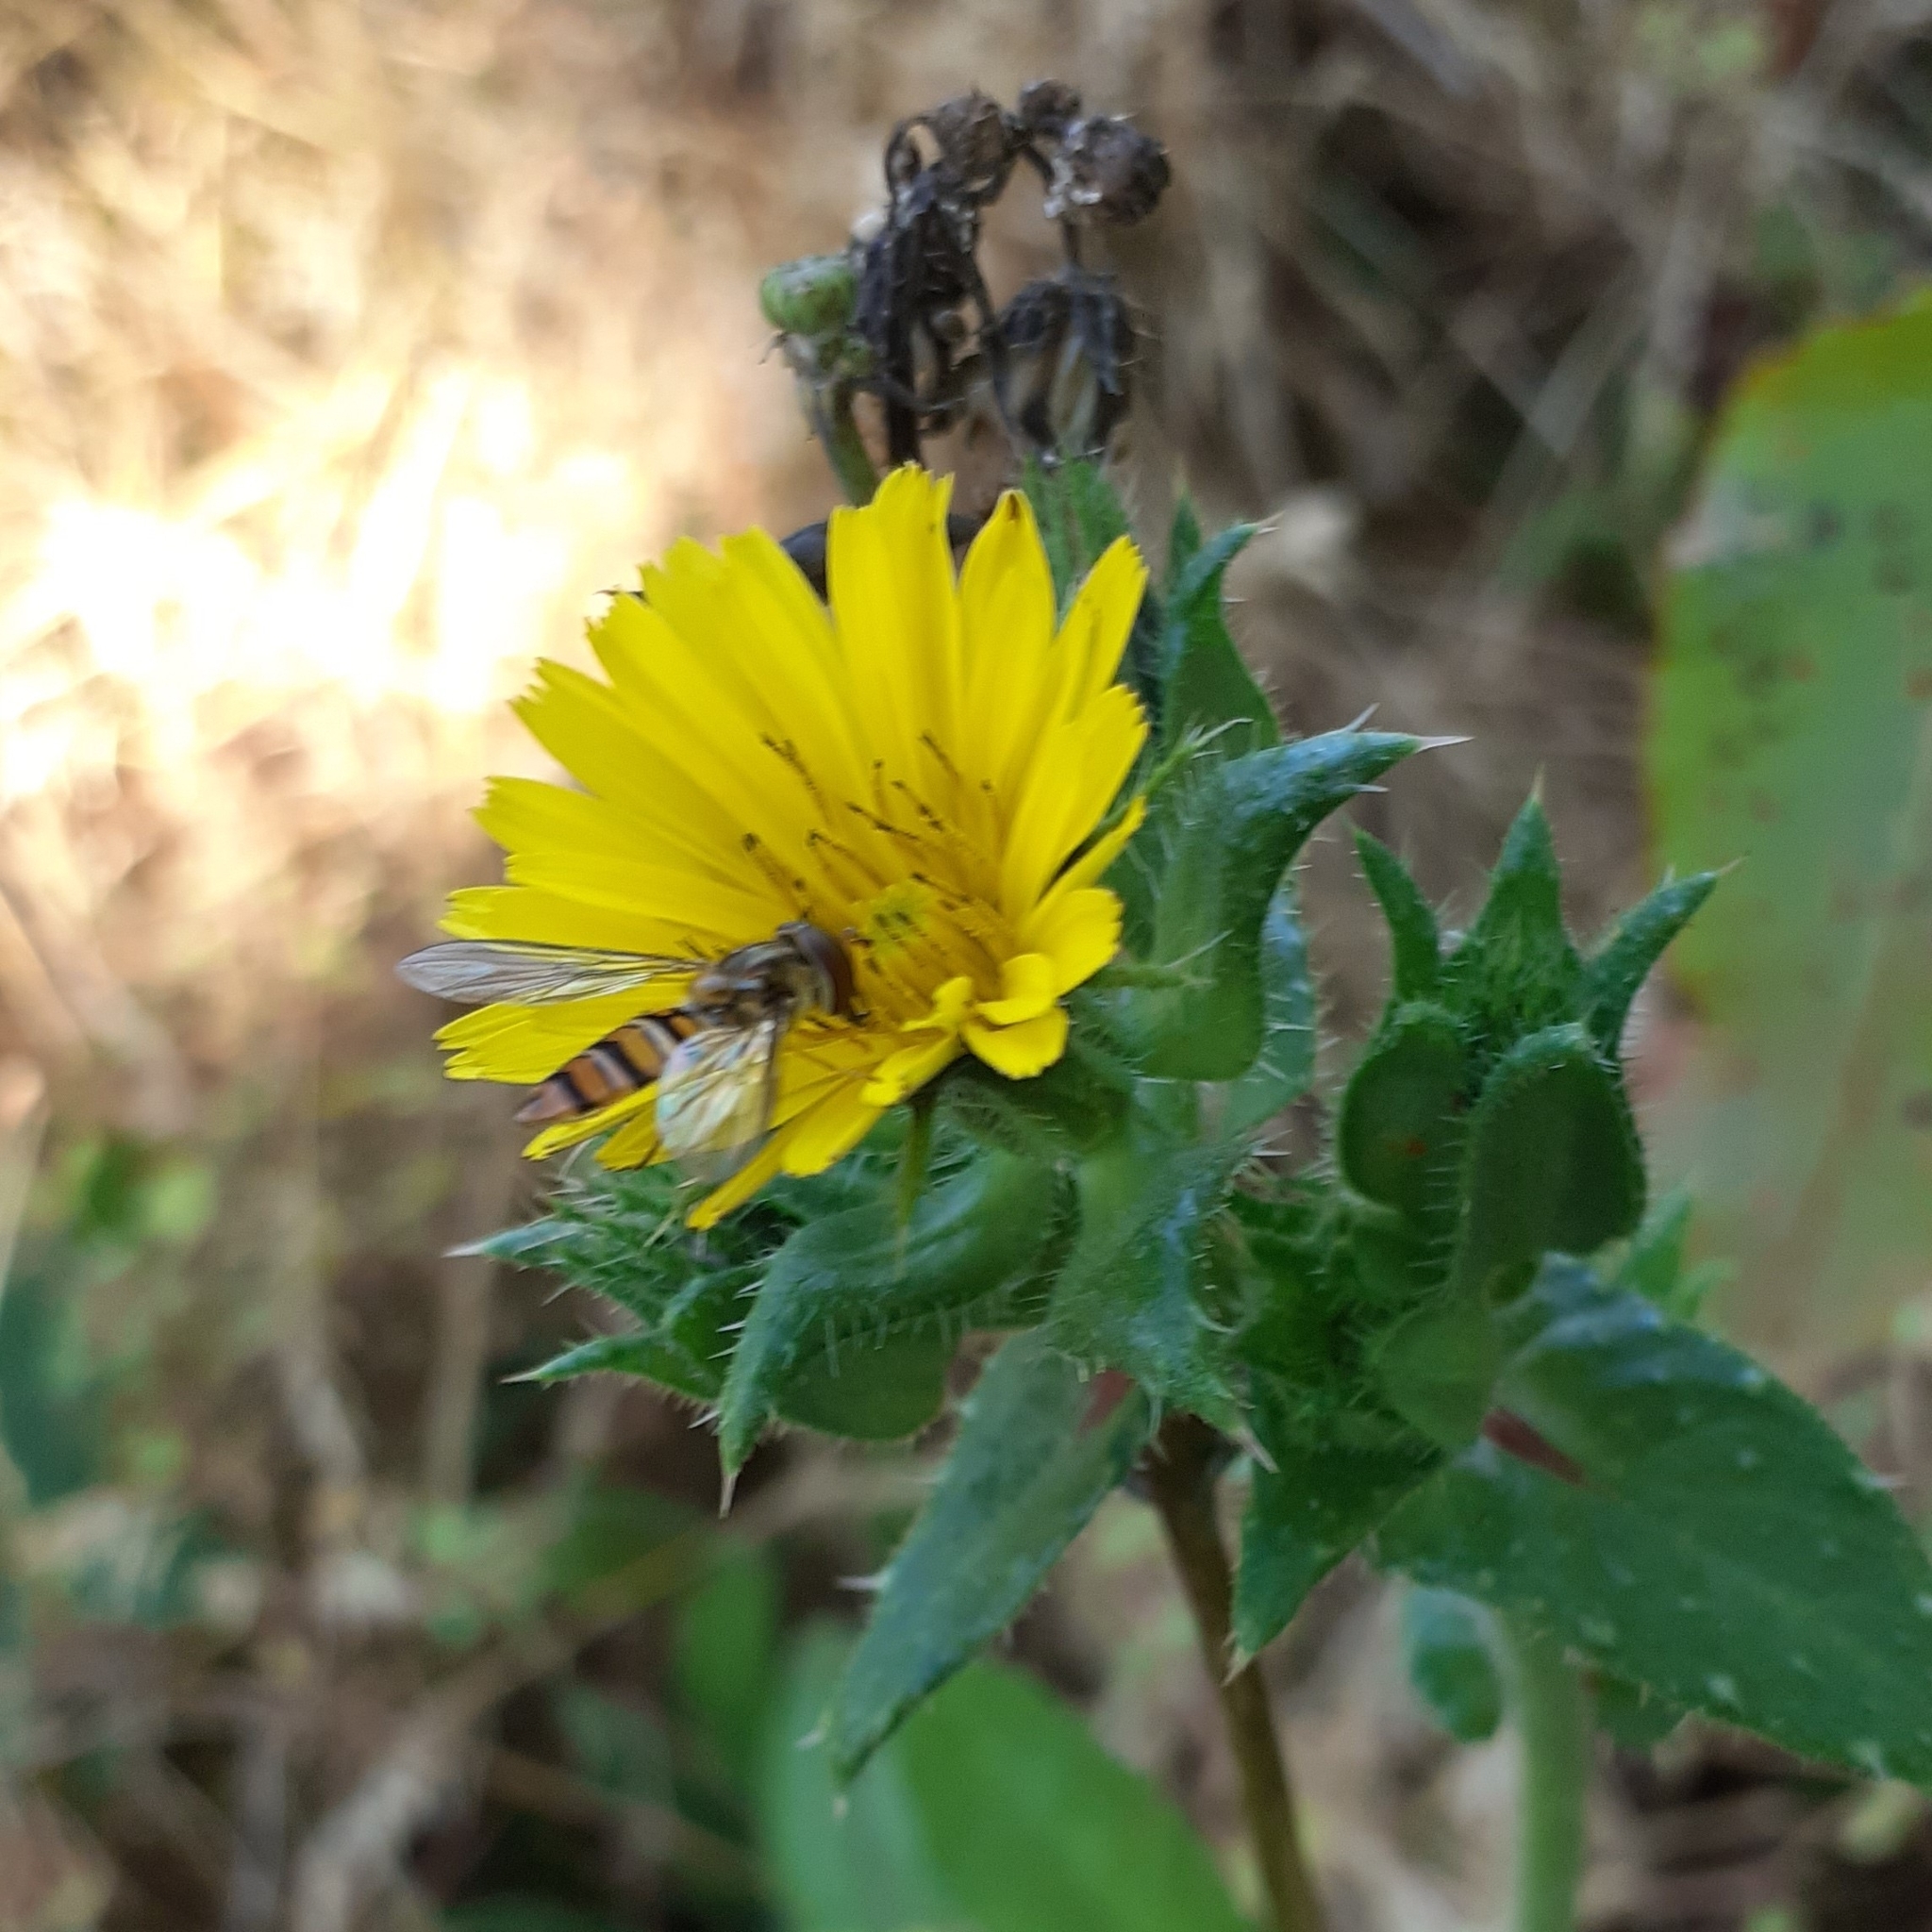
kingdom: Animalia
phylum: Arthropoda
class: Insecta
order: Diptera
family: Syrphidae
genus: Episyrphus
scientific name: Episyrphus balteatus
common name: Marmalade hoverfly
